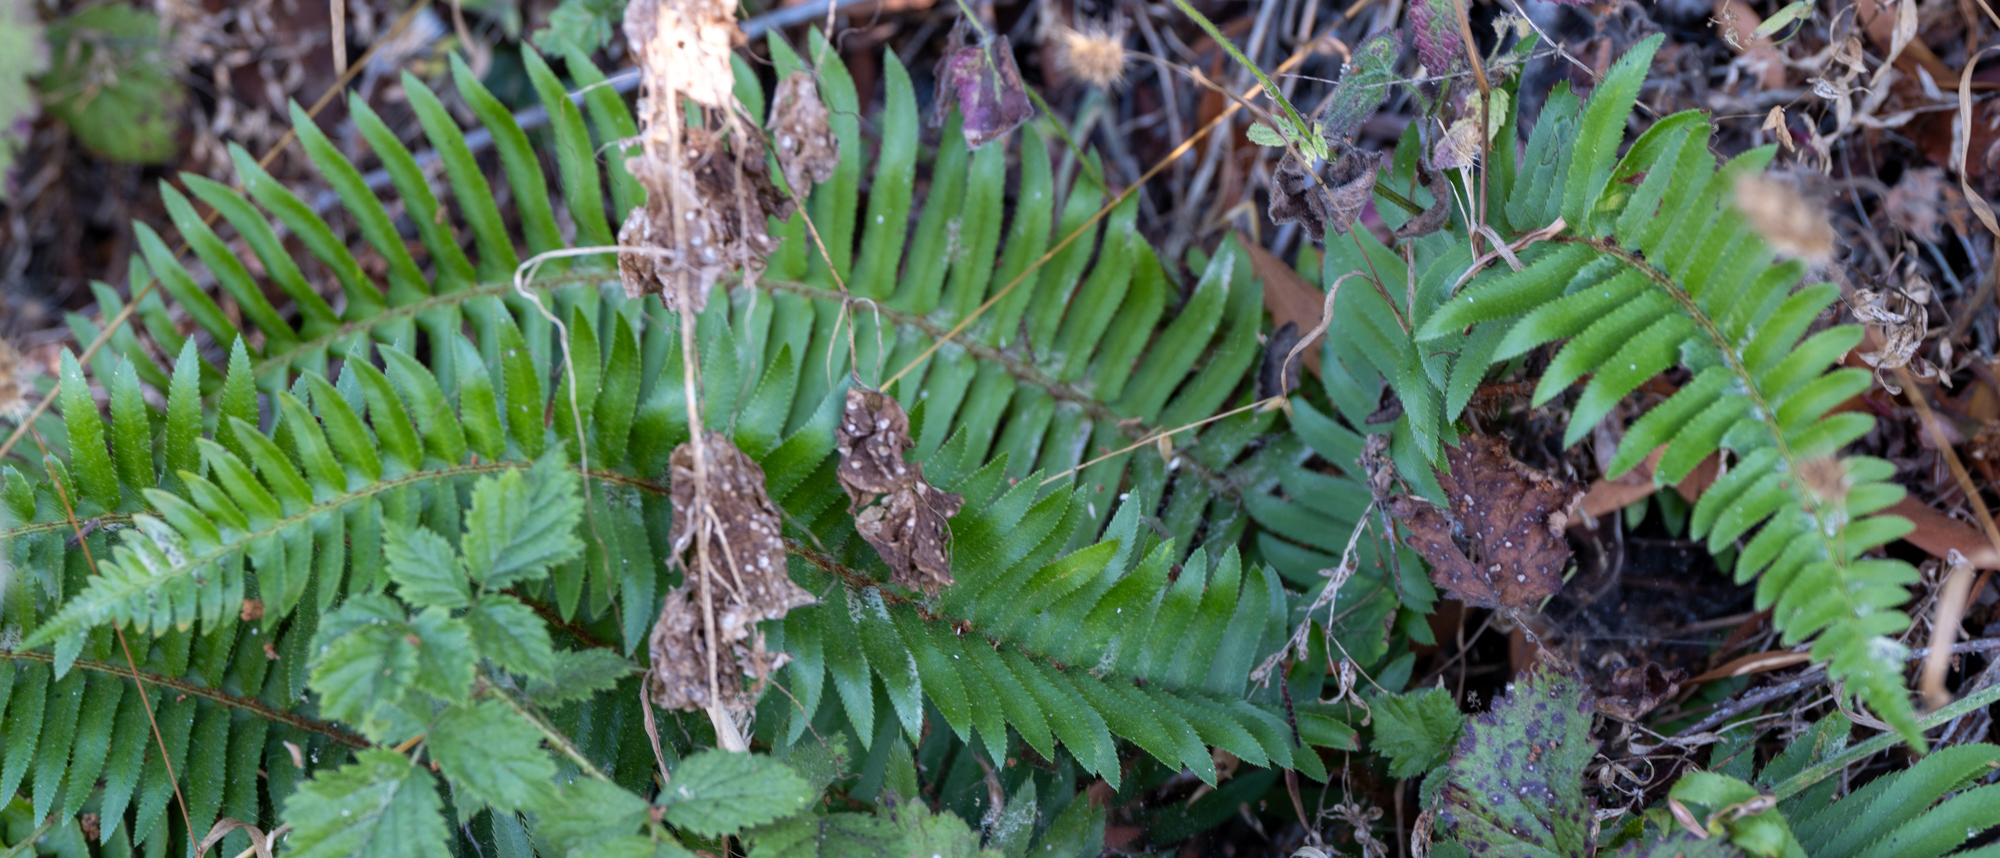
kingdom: Plantae
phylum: Tracheophyta
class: Polypodiopsida
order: Polypodiales
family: Dryopteridaceae
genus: Polystichum
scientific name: Polystichum munitum
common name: Western sword-fern
